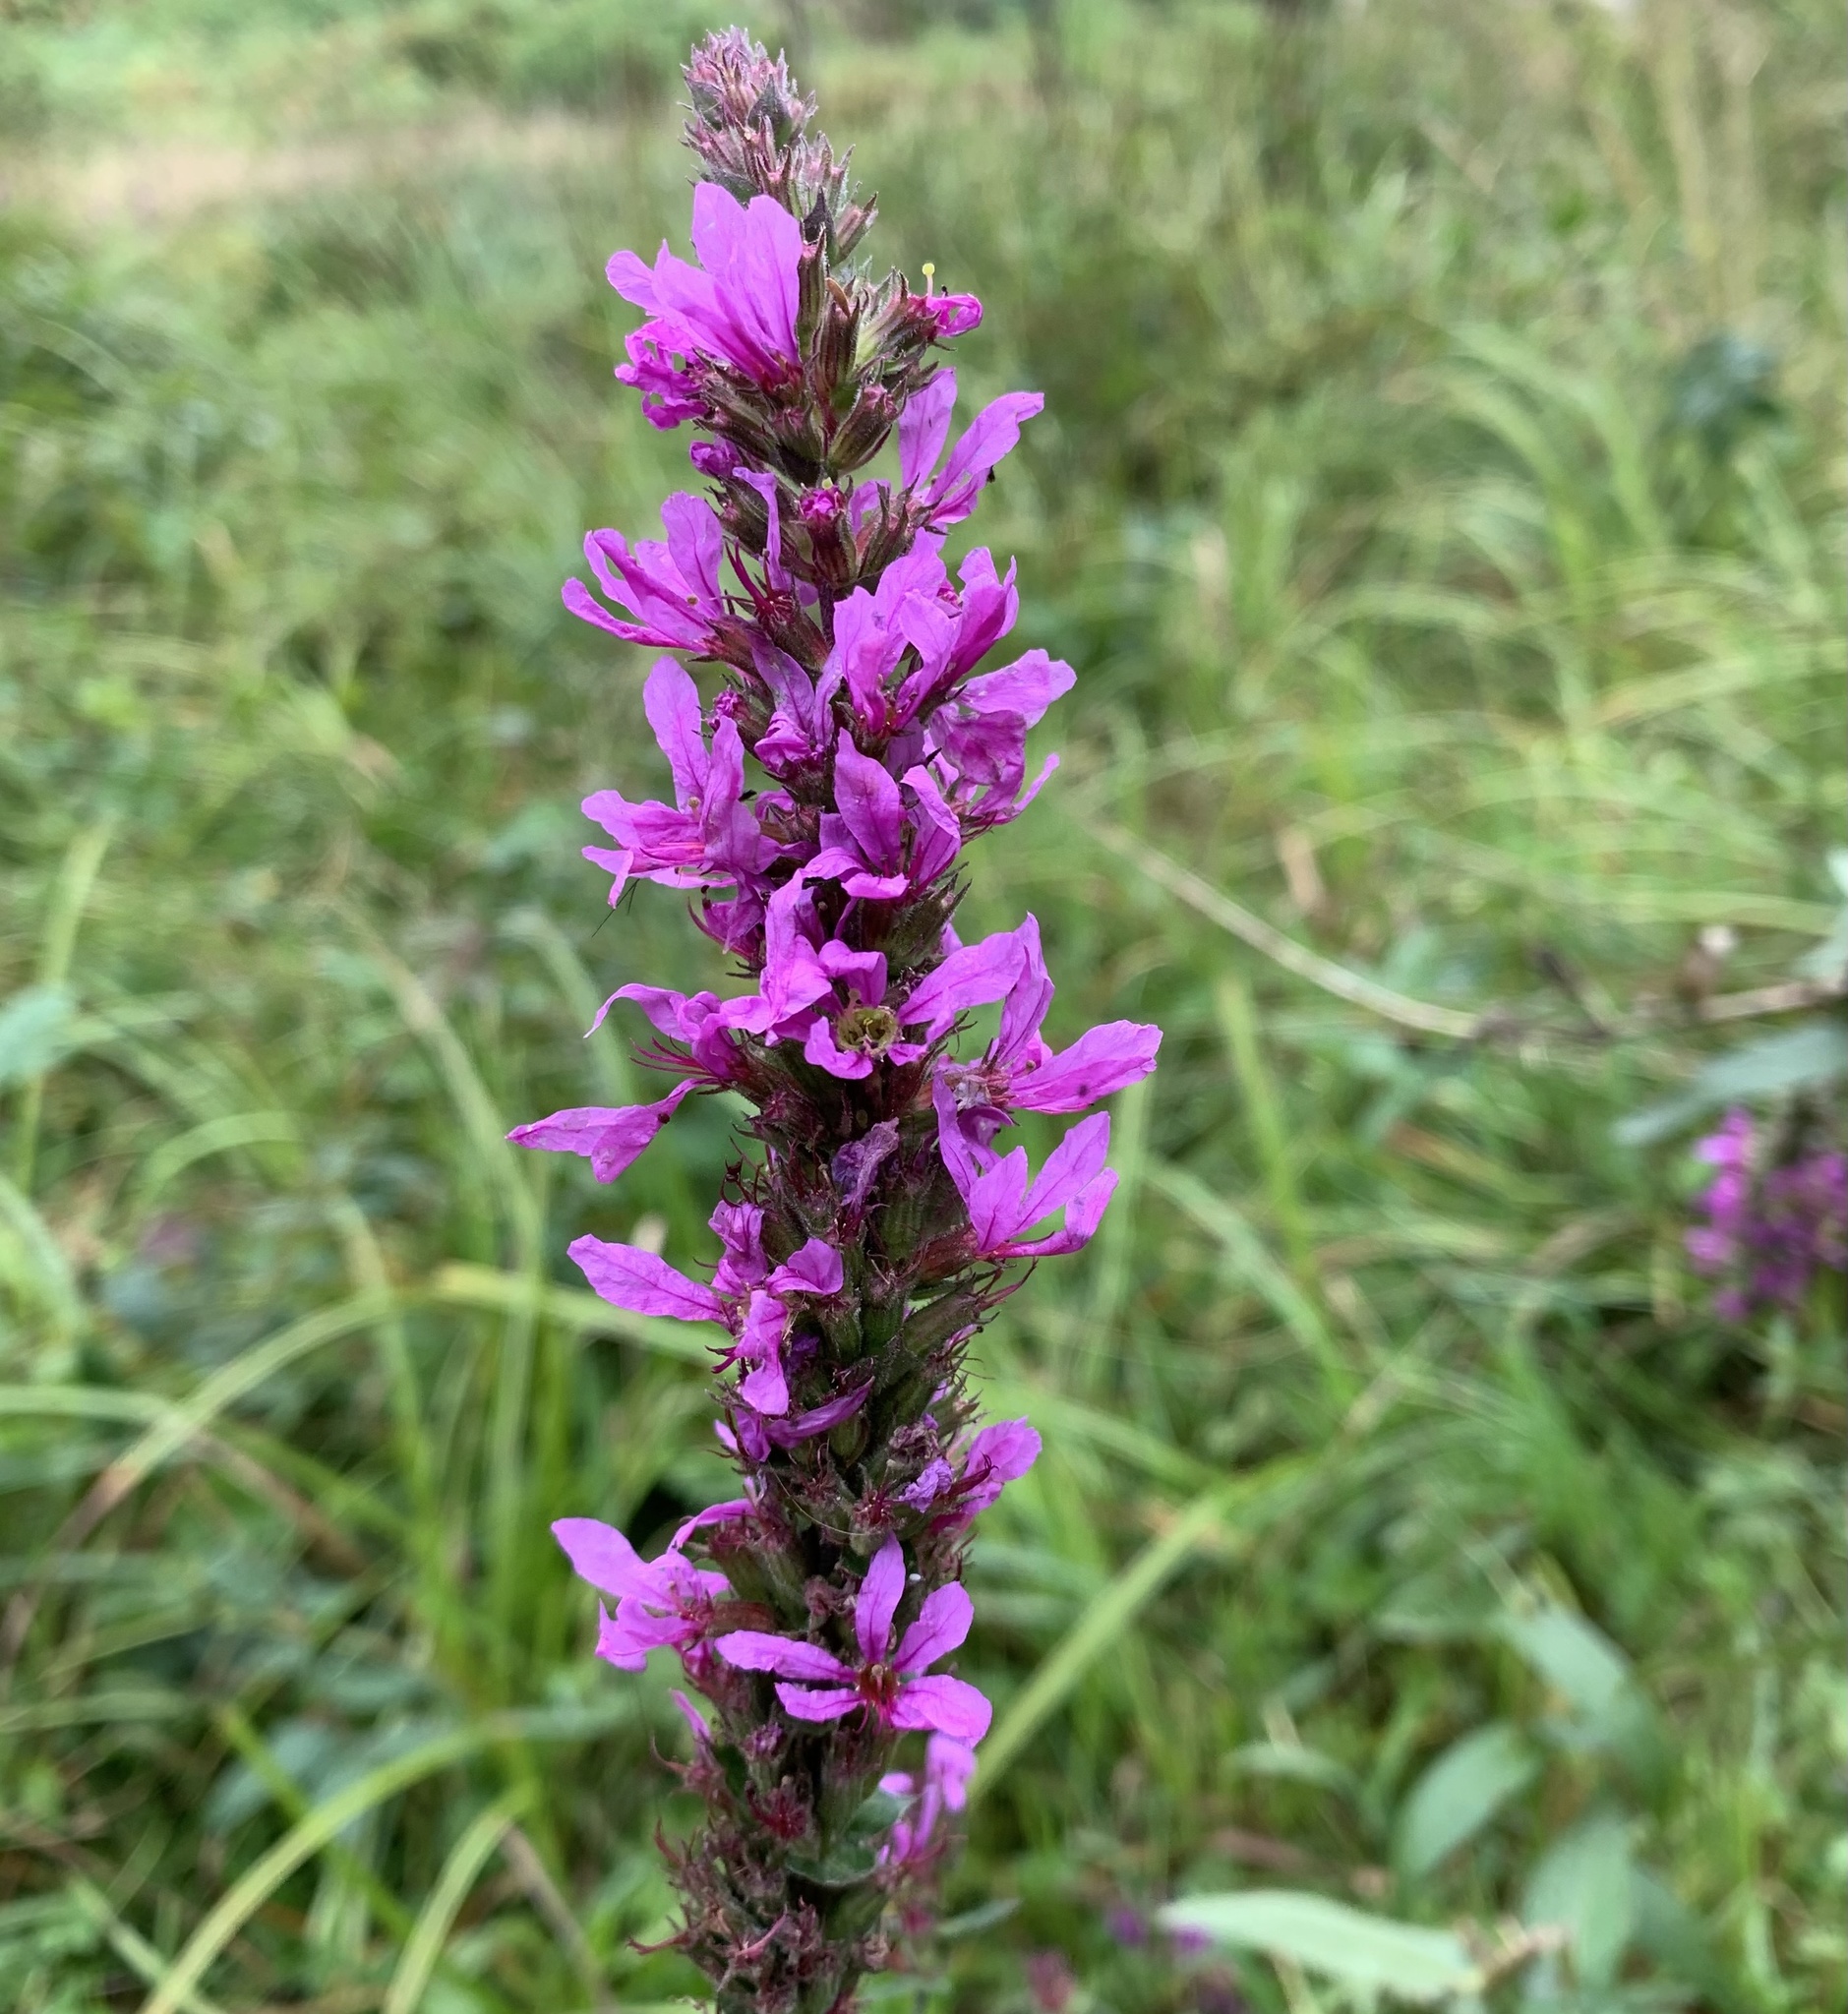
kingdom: Plantae
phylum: Tracheophyta
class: Magnoliopsida
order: Myrtales
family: Lythraceae
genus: Lythrum
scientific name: Lythrum salicaria
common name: Purple loosestrife
